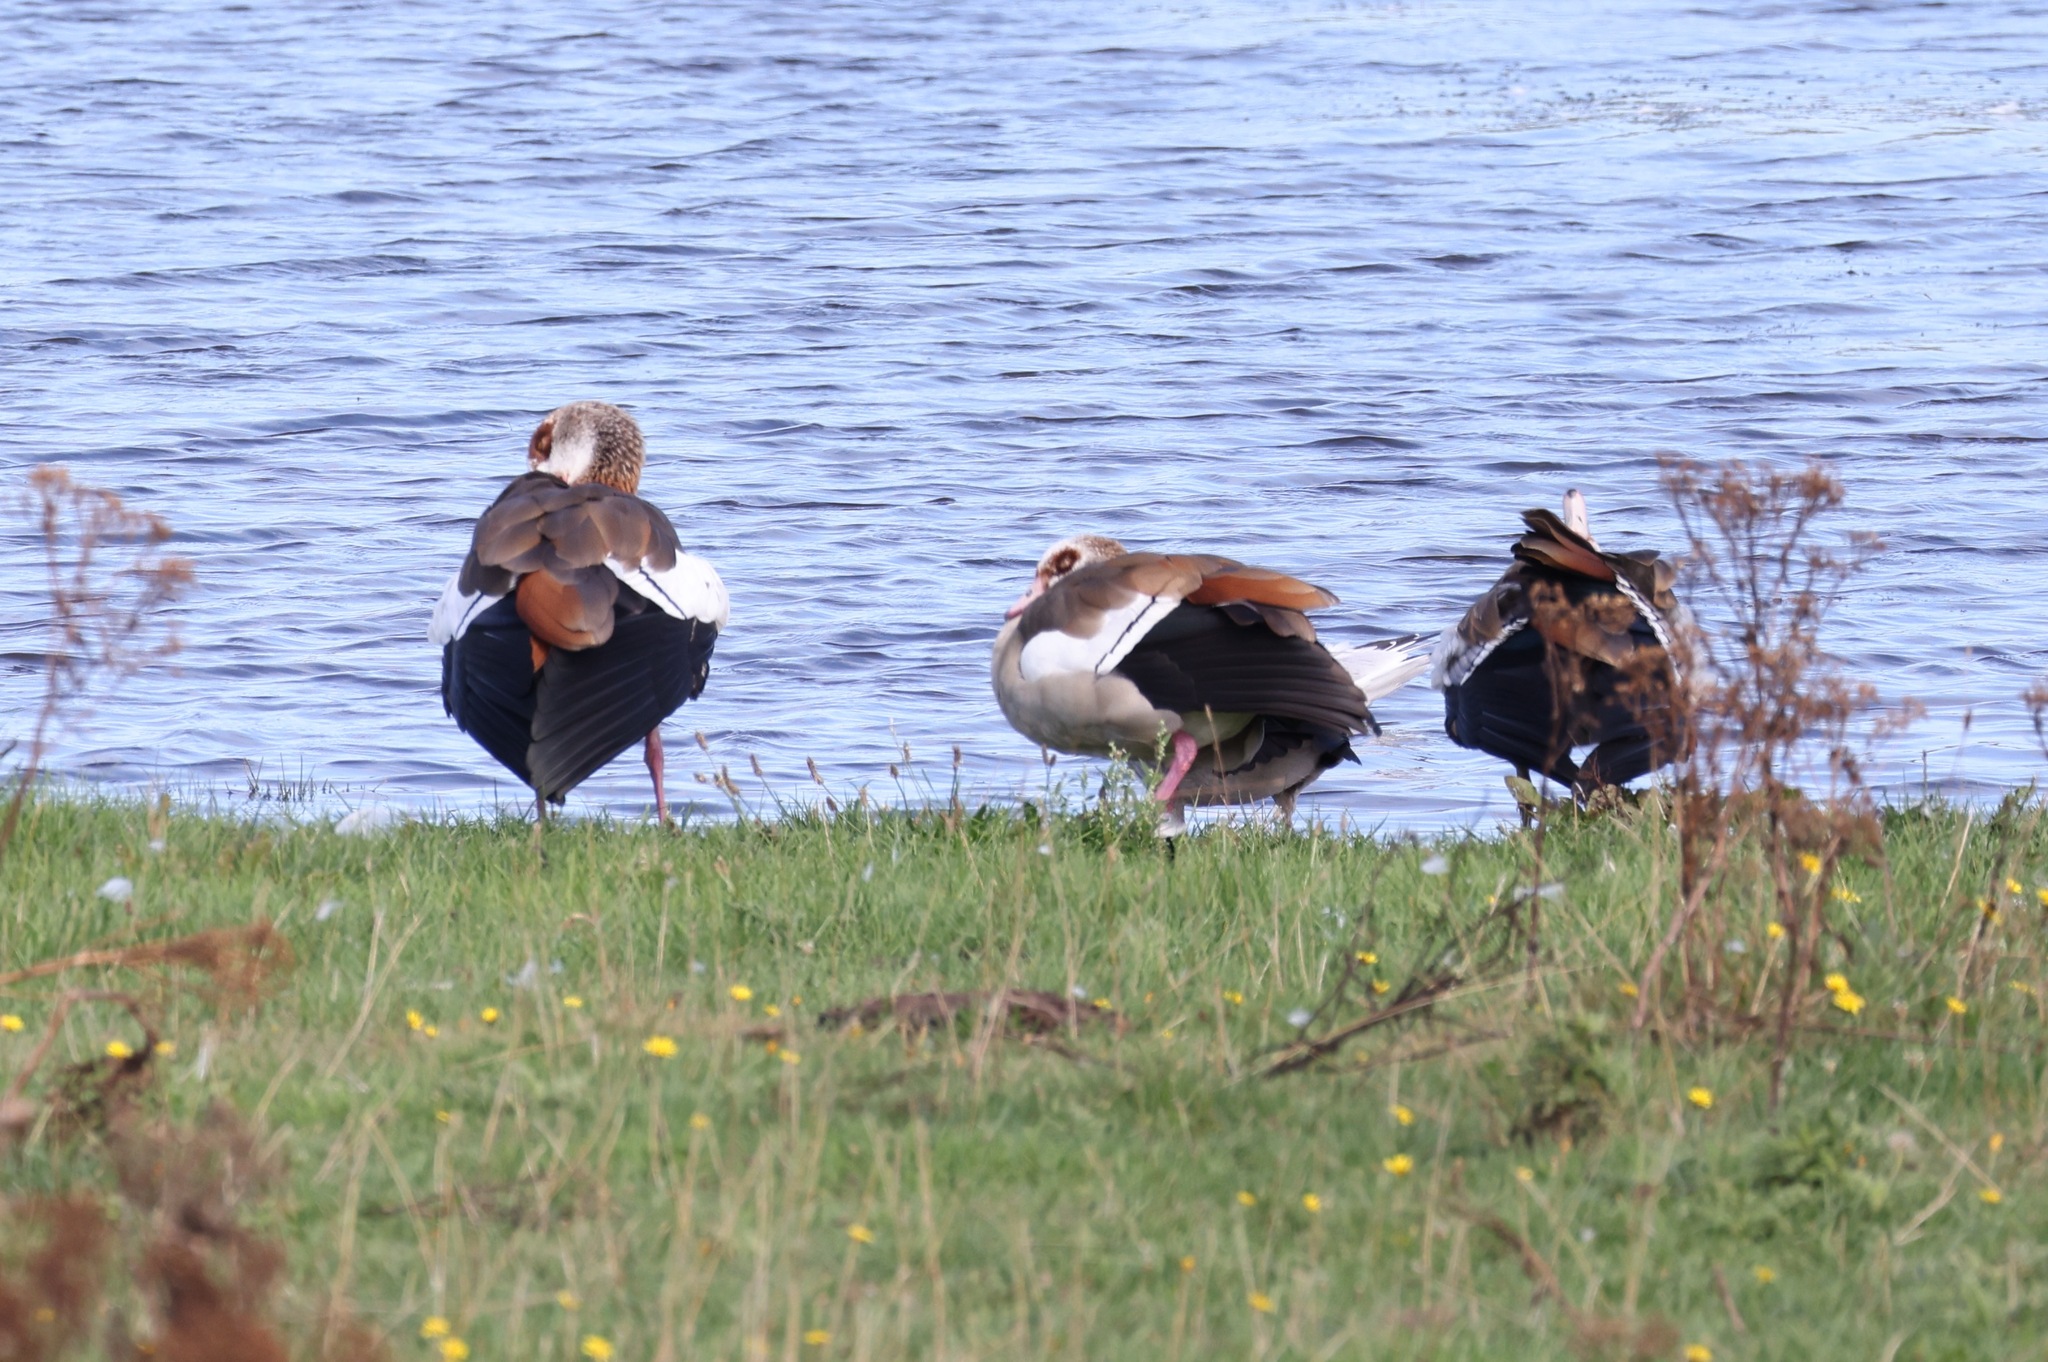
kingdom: Animalia
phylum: Chordata
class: Aves
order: Anseriformes
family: Anatidae
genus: Alopochen
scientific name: Alopochen aegyptiaca
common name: Egyptian goose
